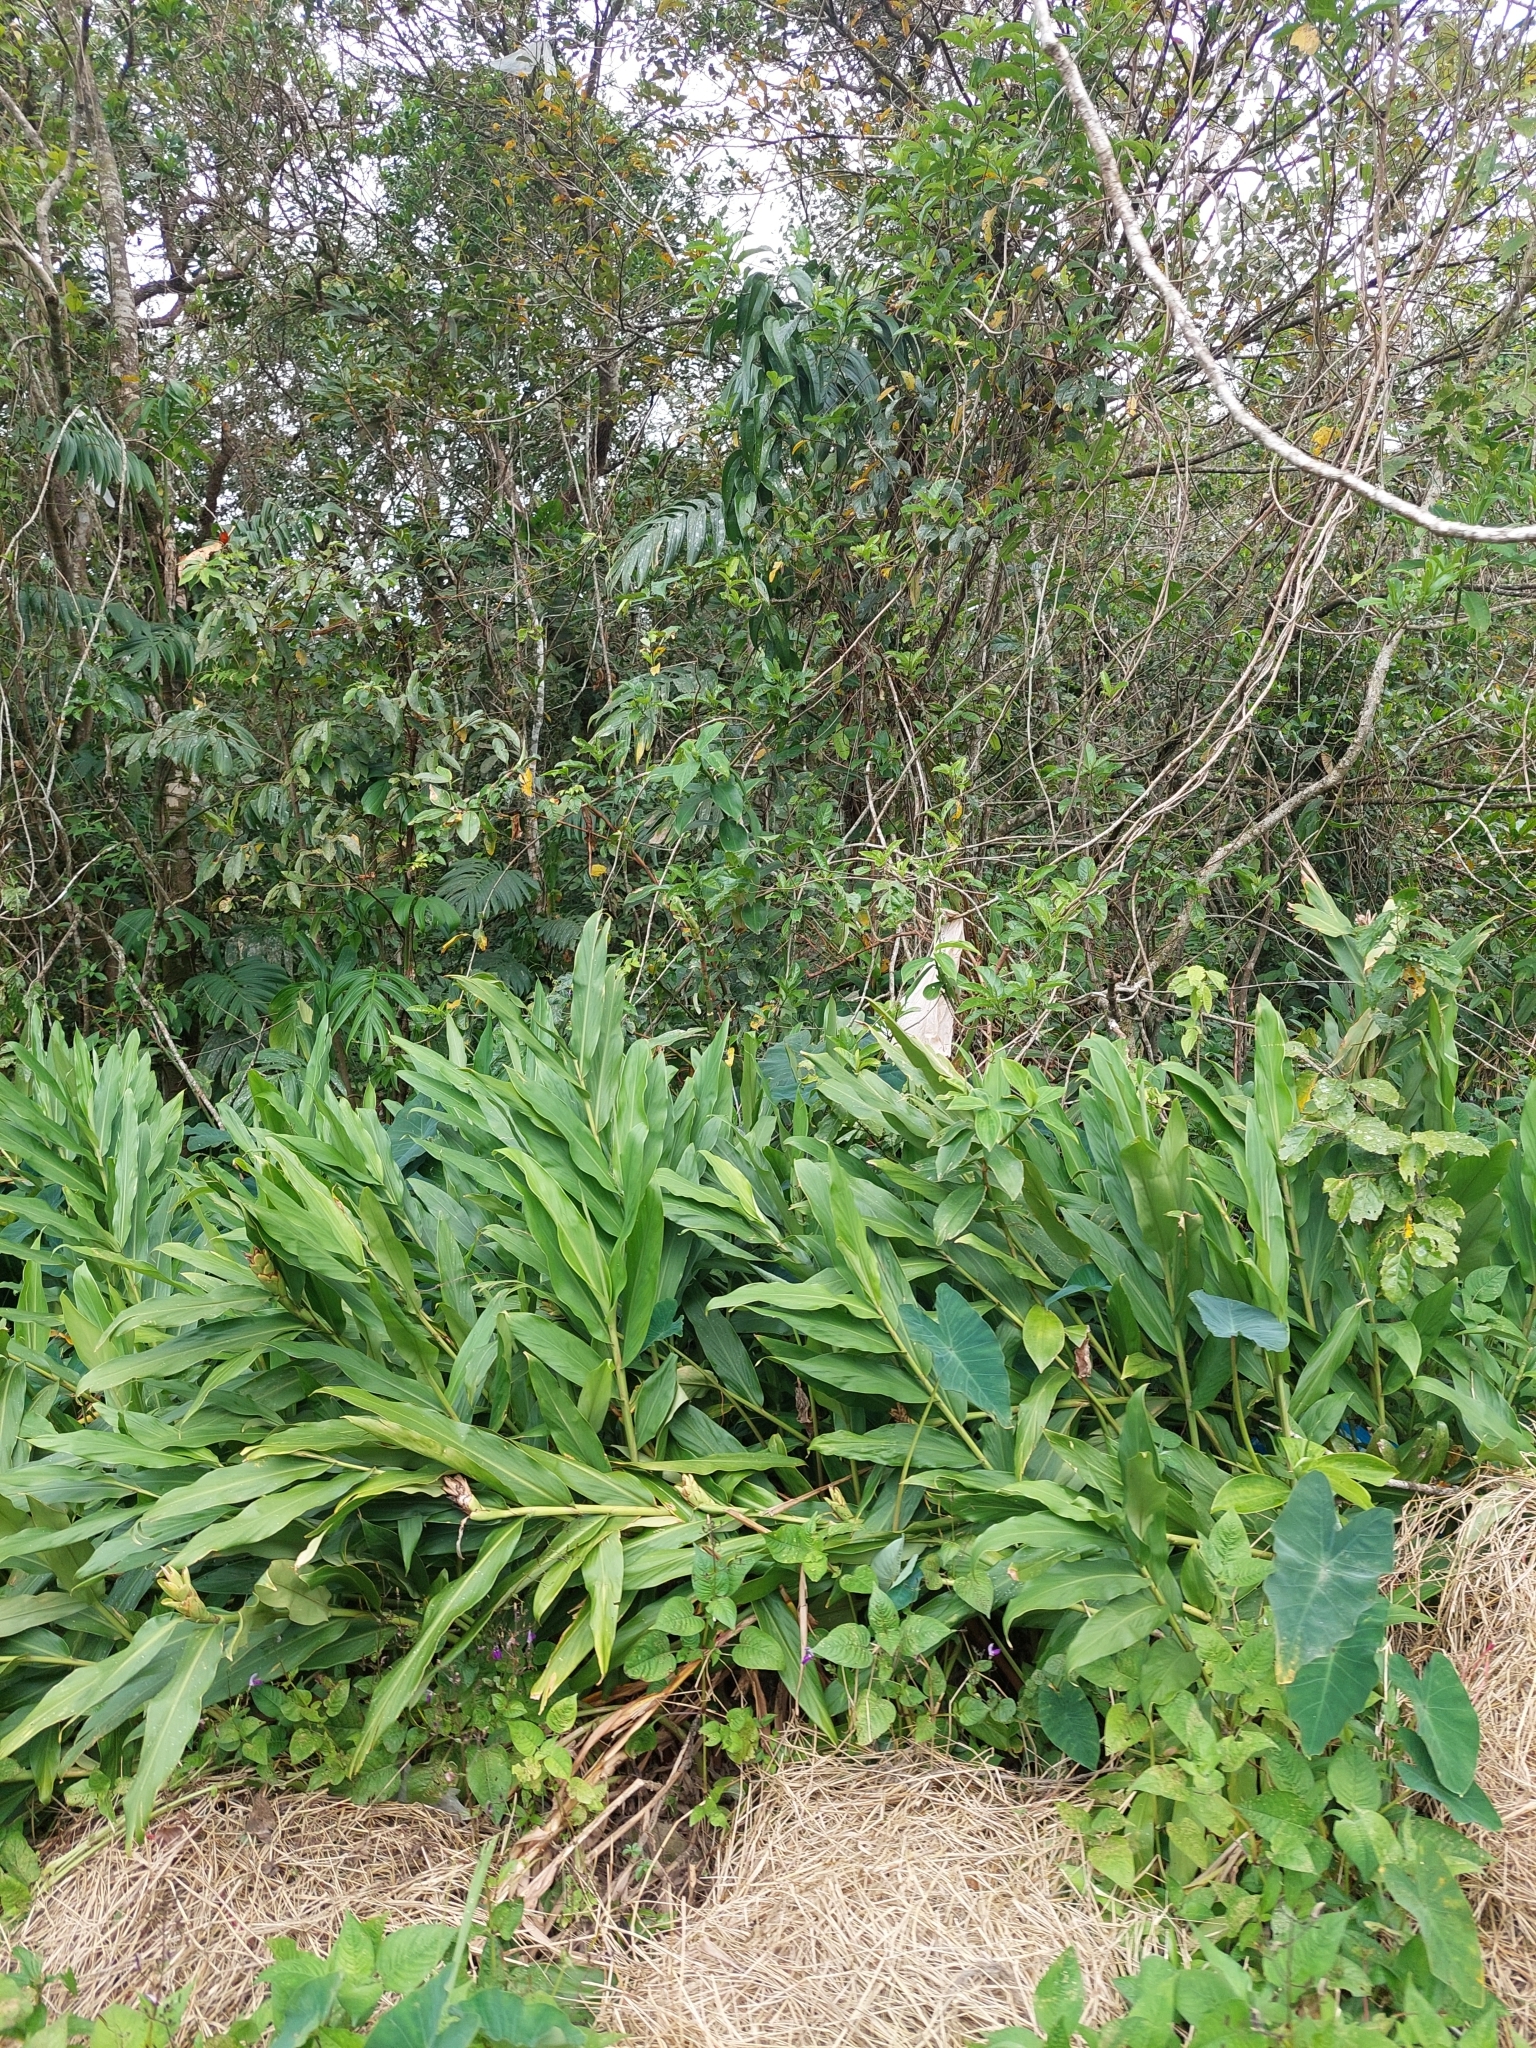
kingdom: Plantae
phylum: Tracheophyta
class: Liliopsida
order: Zingiberales
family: Zingiberaceae
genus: Hedychium
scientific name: Hedychium coronarium
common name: White garland-lily
